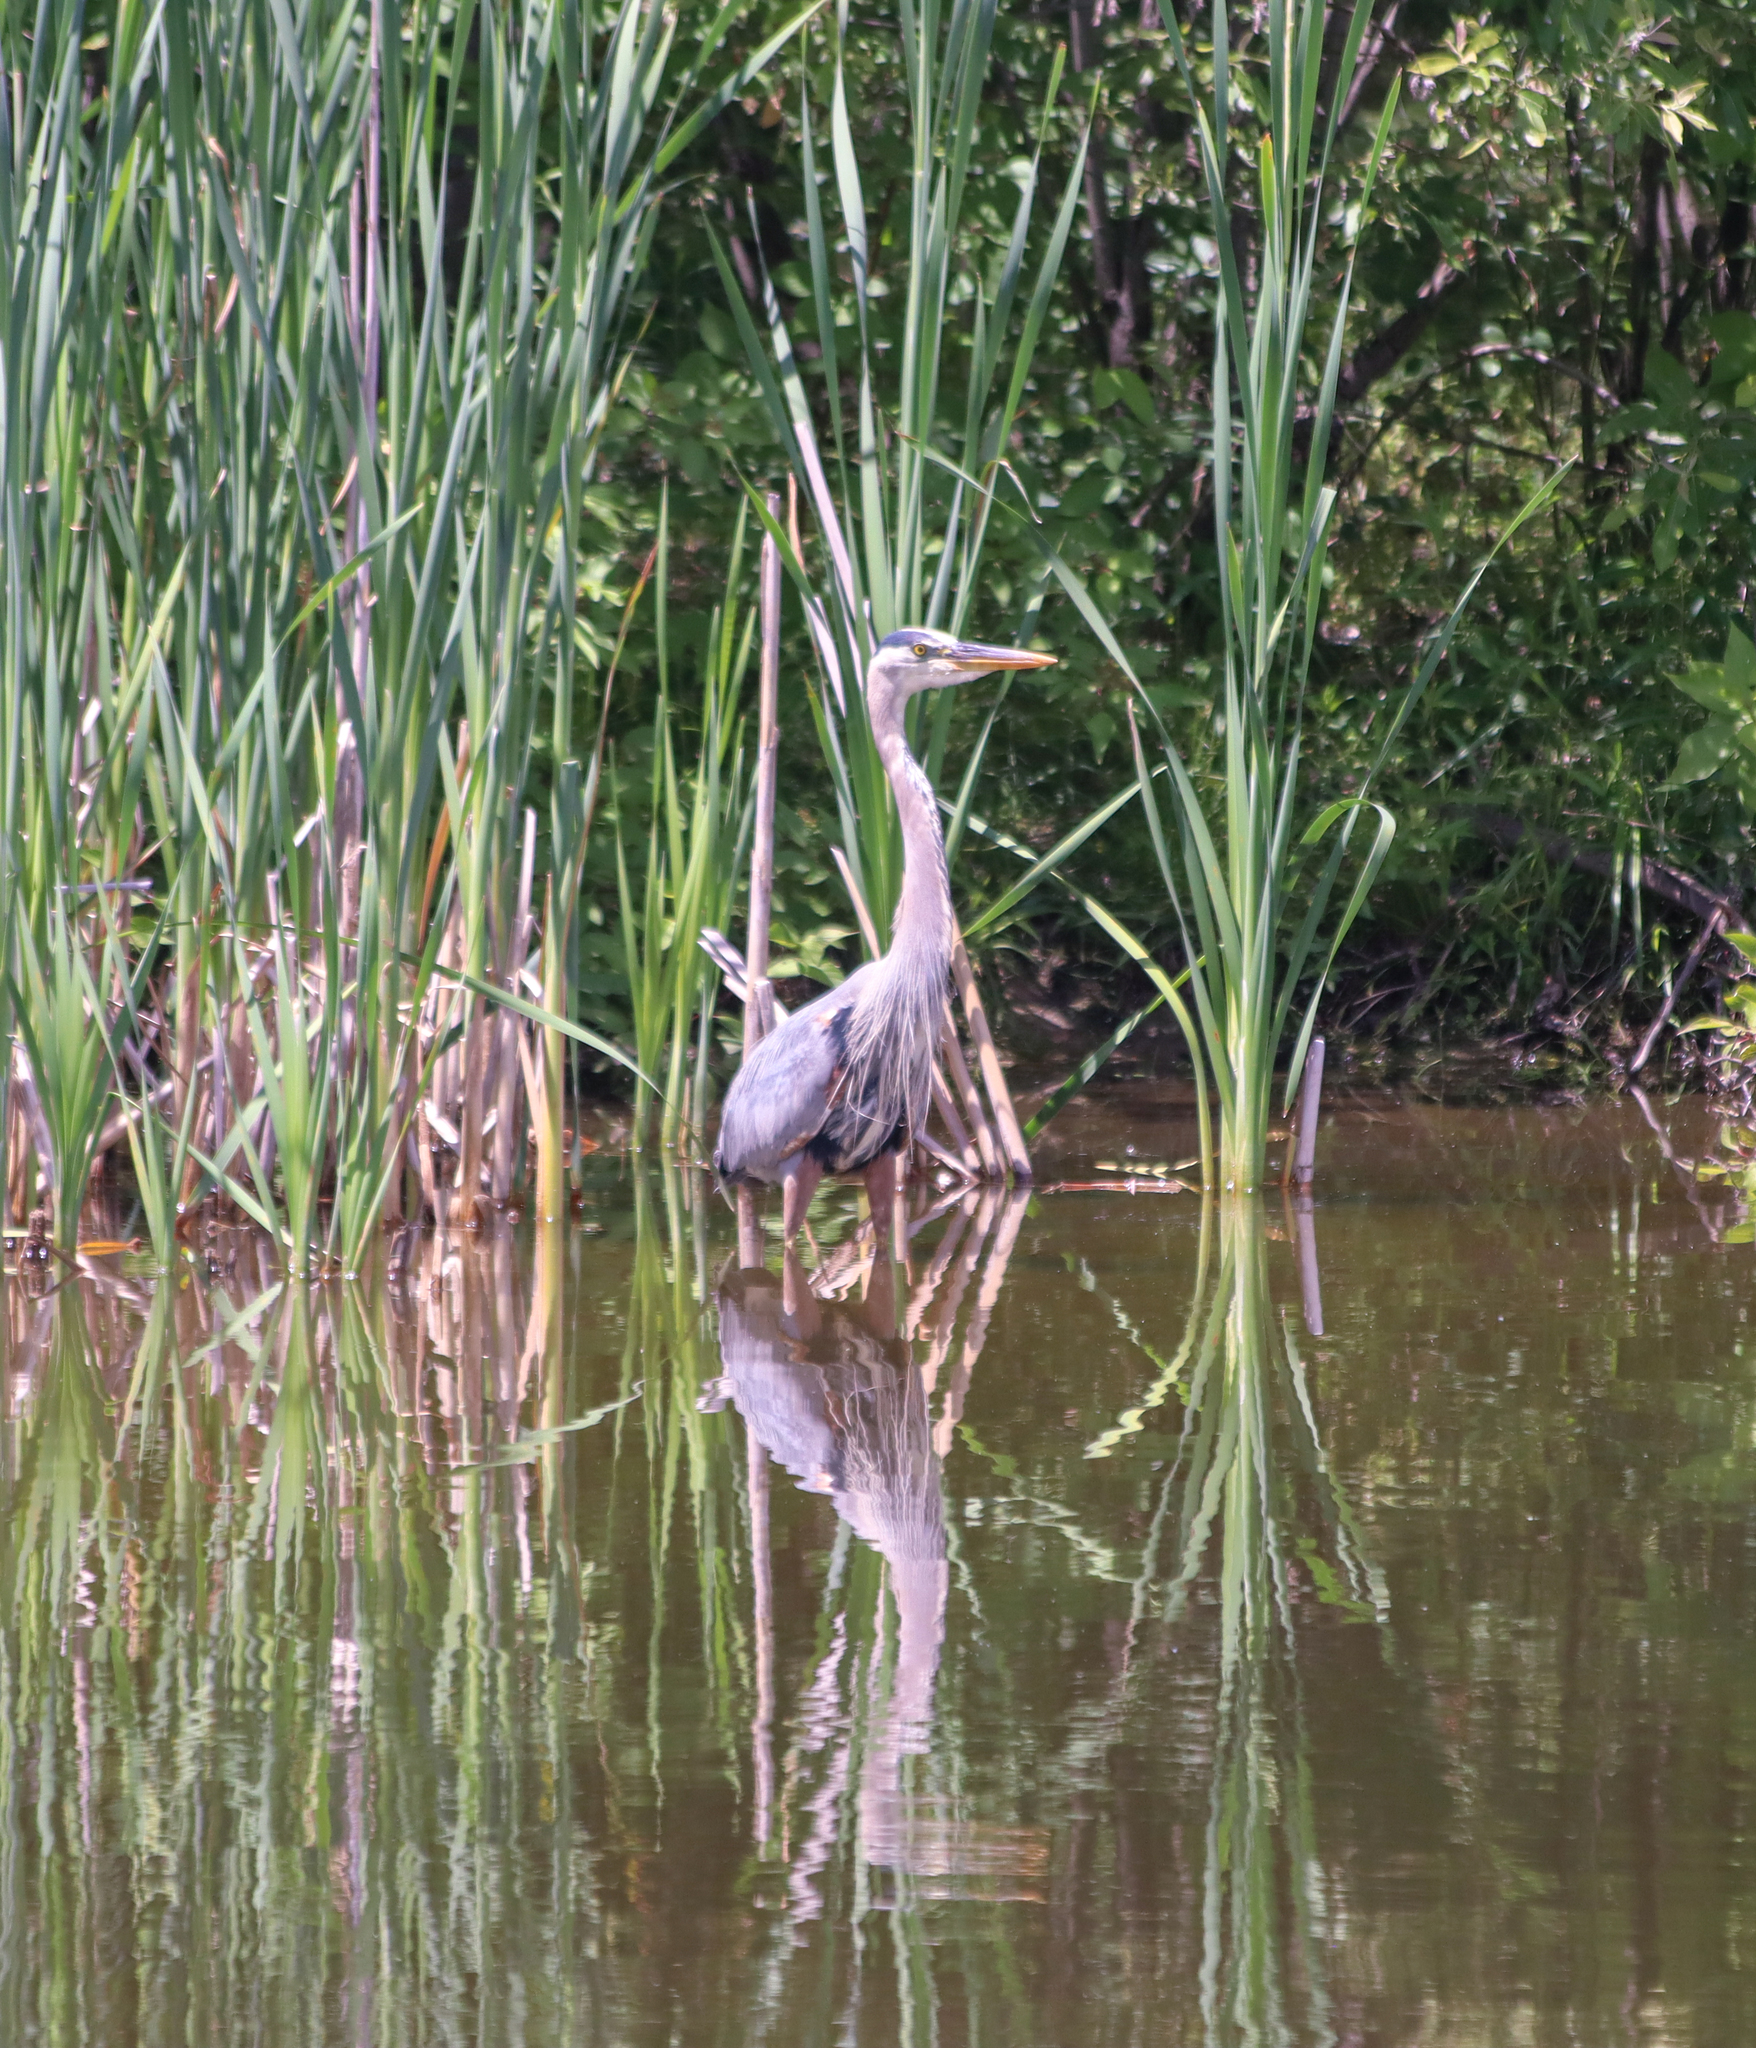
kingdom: Animalia
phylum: Chordata
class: Aves
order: Pelecaniformes
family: Ardeidae
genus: Ardea
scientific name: Ardea herodias
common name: Great blue heron
